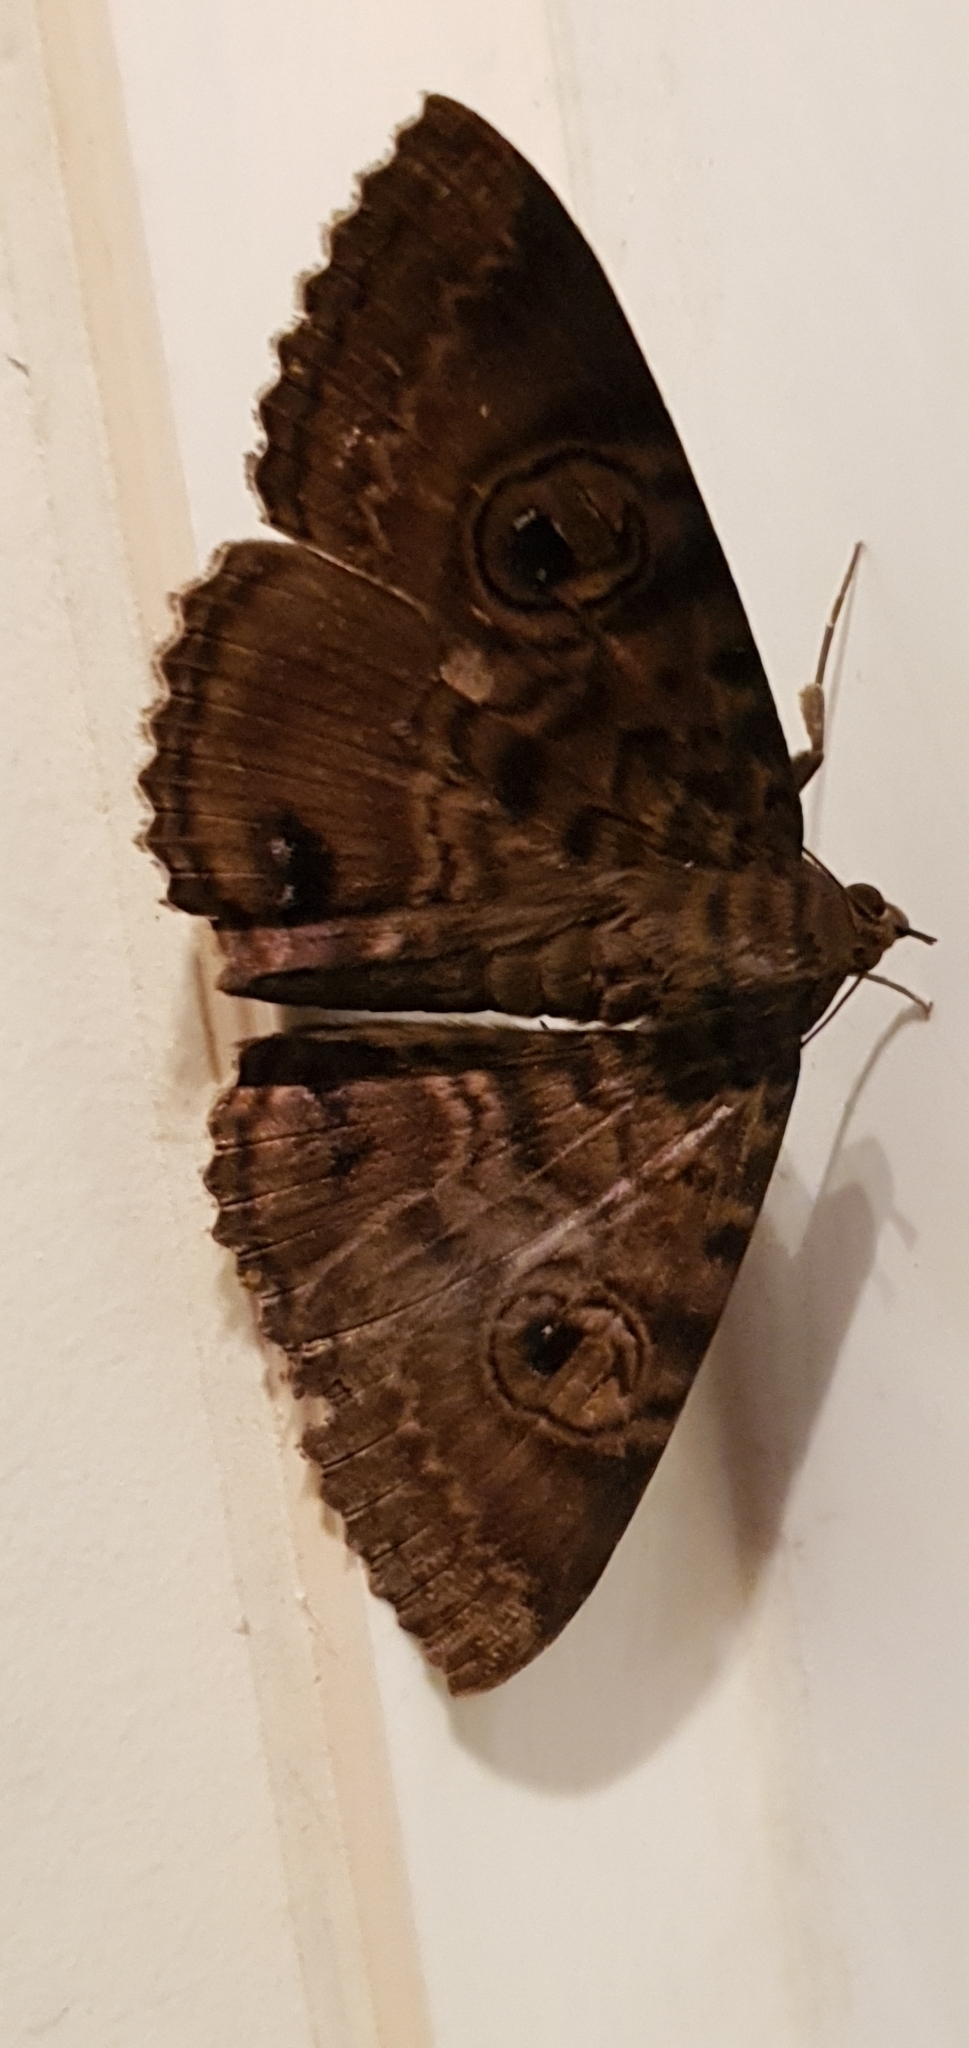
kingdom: Animalia
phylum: Arthropoda
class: Insecta
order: Lepidoptera
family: Erebidae
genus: Speiredonia
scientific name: Speiredonia spectans
